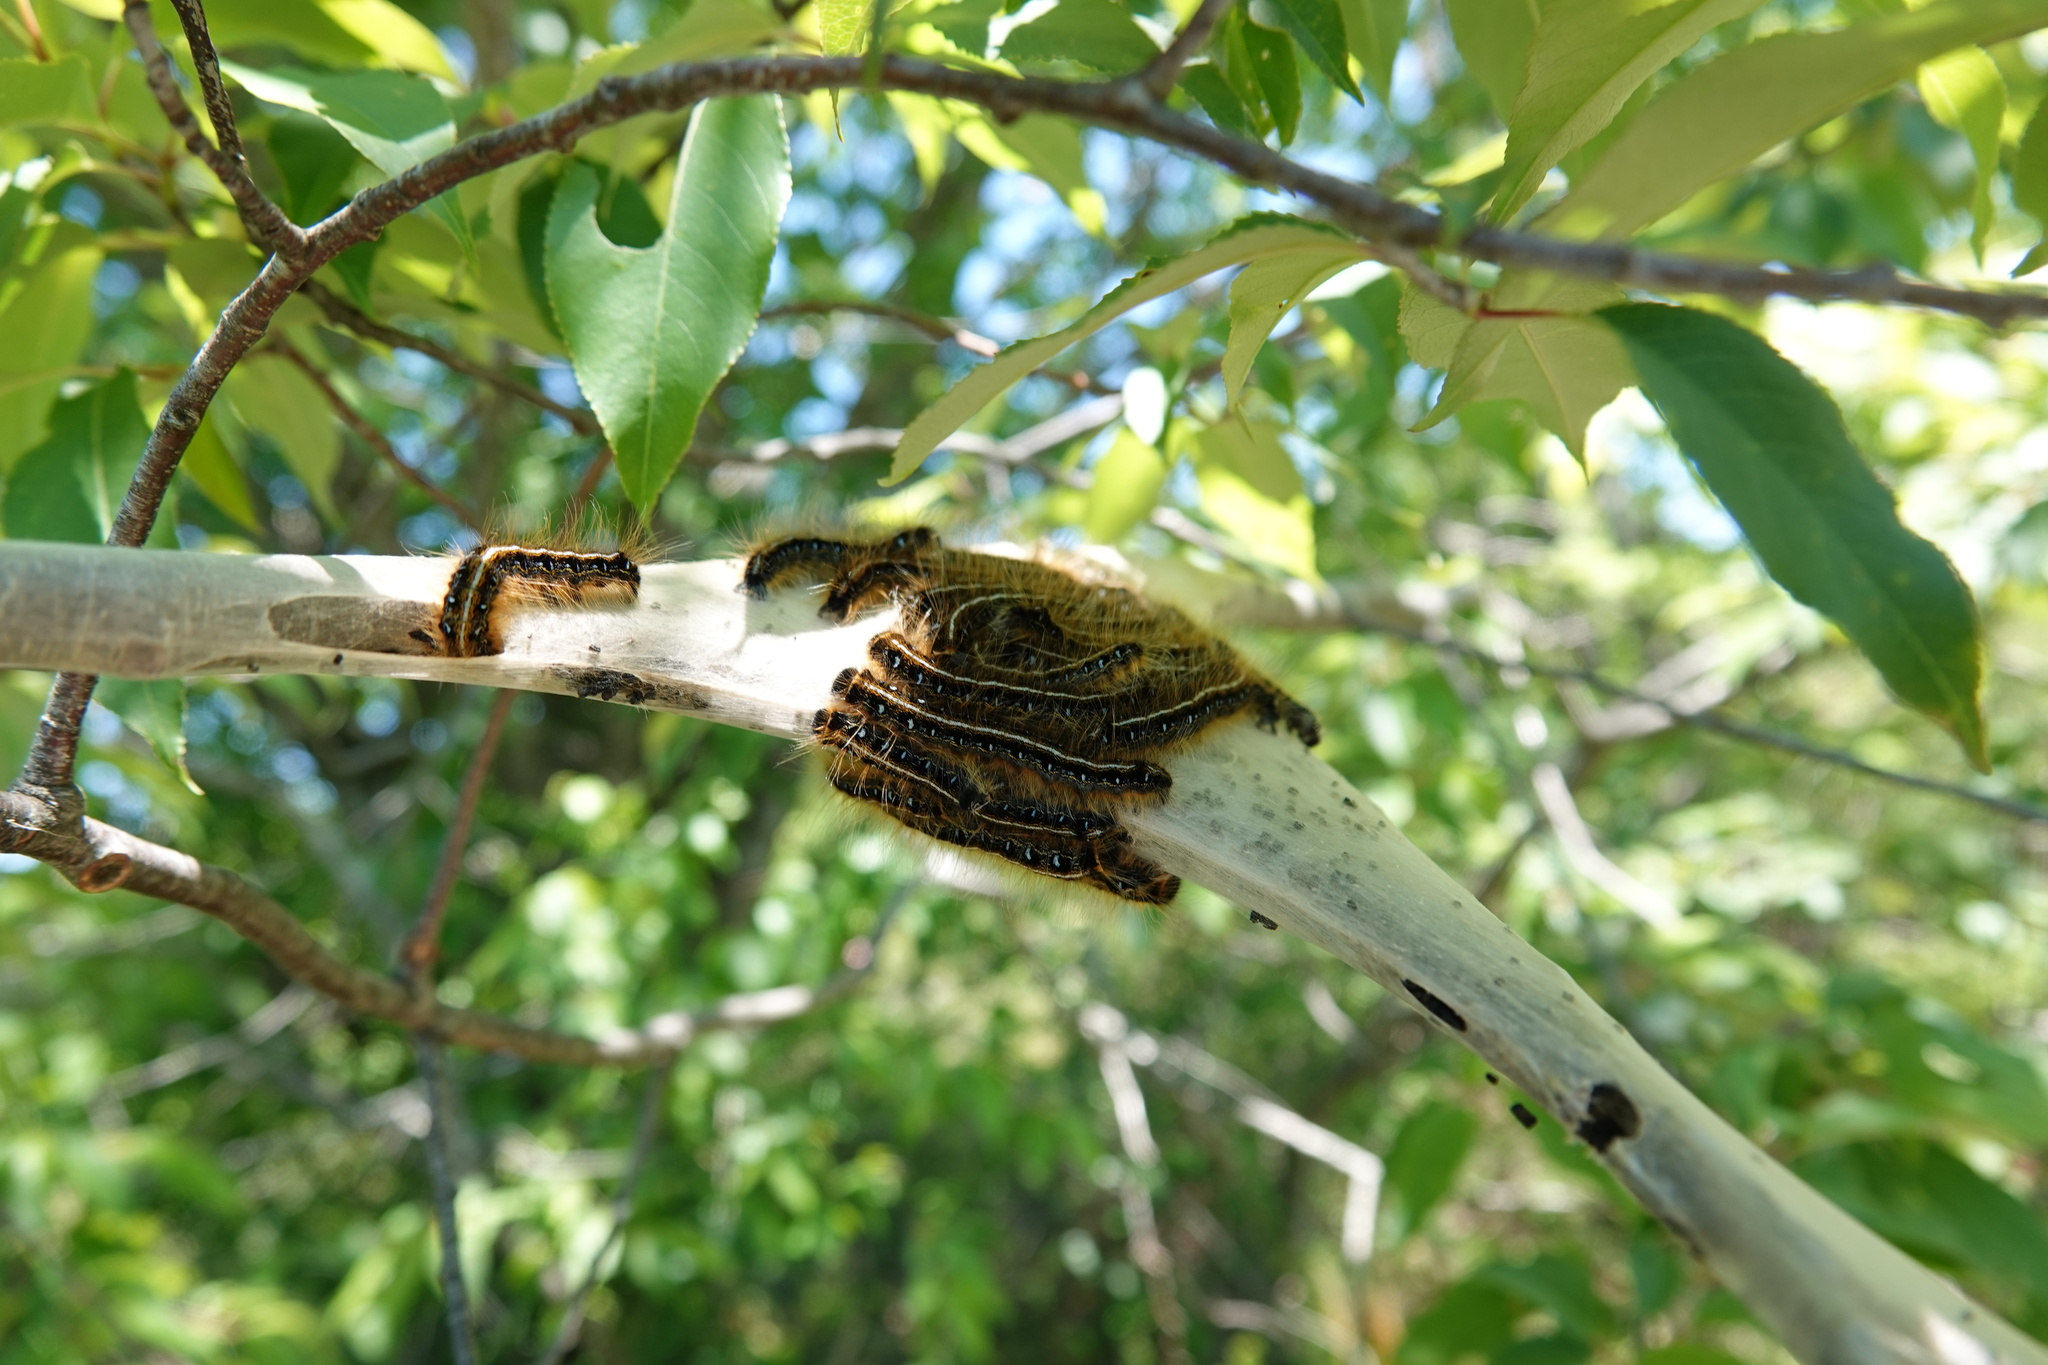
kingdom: Animalia
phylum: Arthropoda
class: Insecta
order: Lepidoptera
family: Lasiocampidae
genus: Malacosoma
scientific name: Malacosoma americana
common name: Eastern tent caterpillar moth
